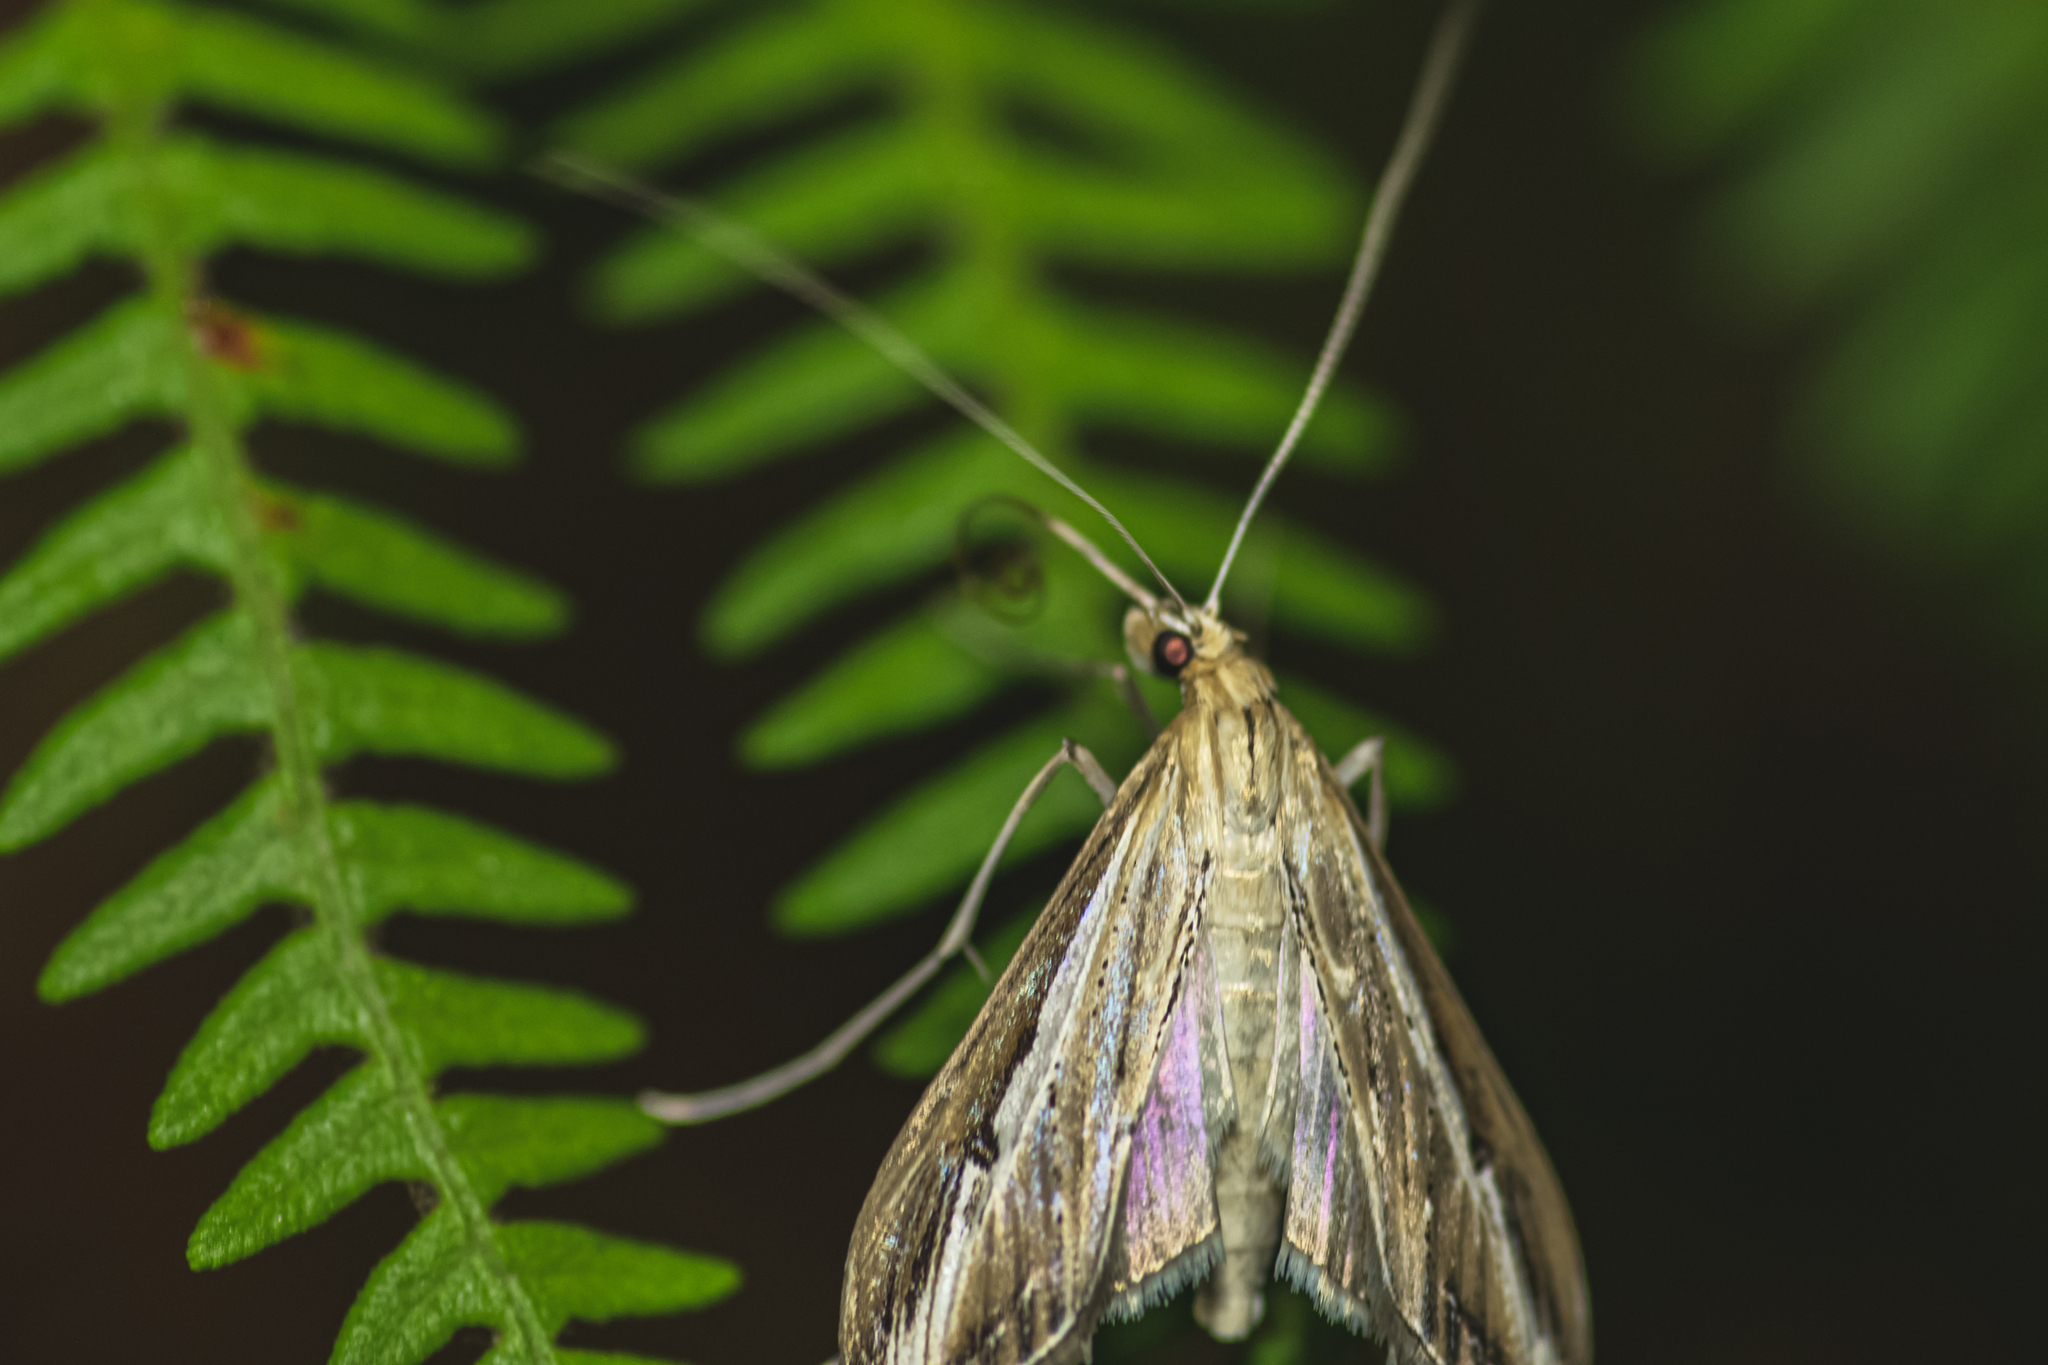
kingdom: Animalia
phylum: Arthropoda
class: Insecta
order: Lepidoptera
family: Crambidae
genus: Euclasta
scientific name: Euclasta splendidalis
